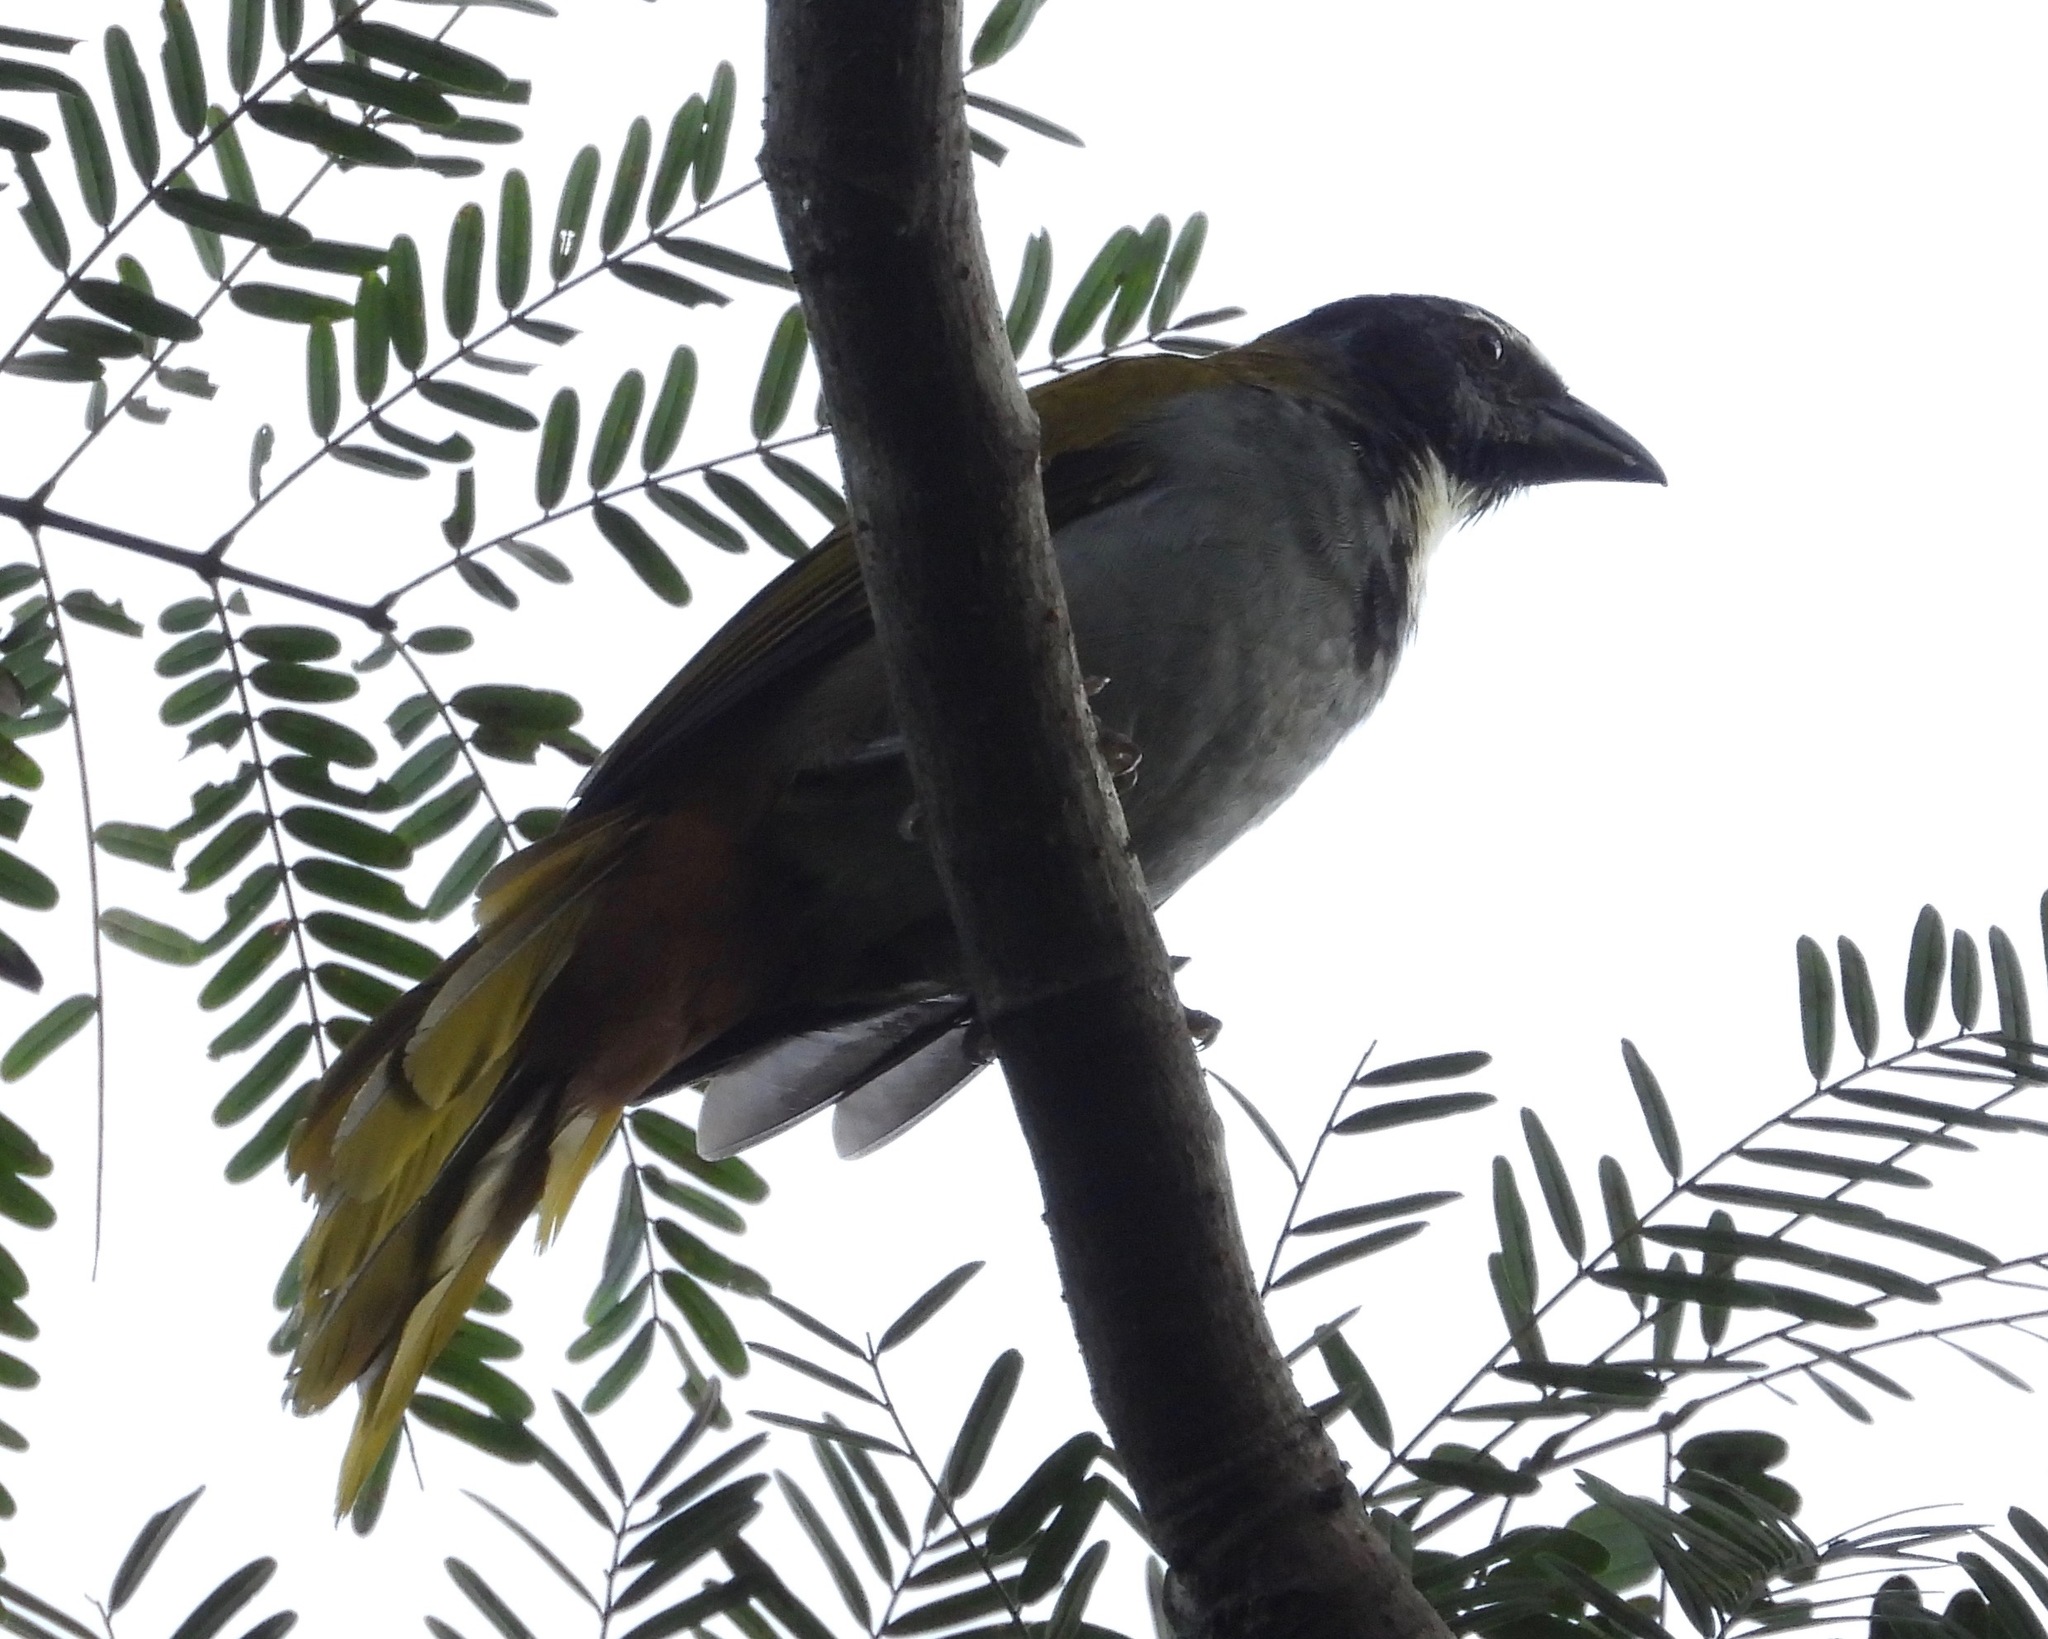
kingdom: Animalia
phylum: Chordata
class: Aves
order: Passeriformes
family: Thraupidae
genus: Saltator
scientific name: Saltator atriceps
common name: Black-headed saltator
